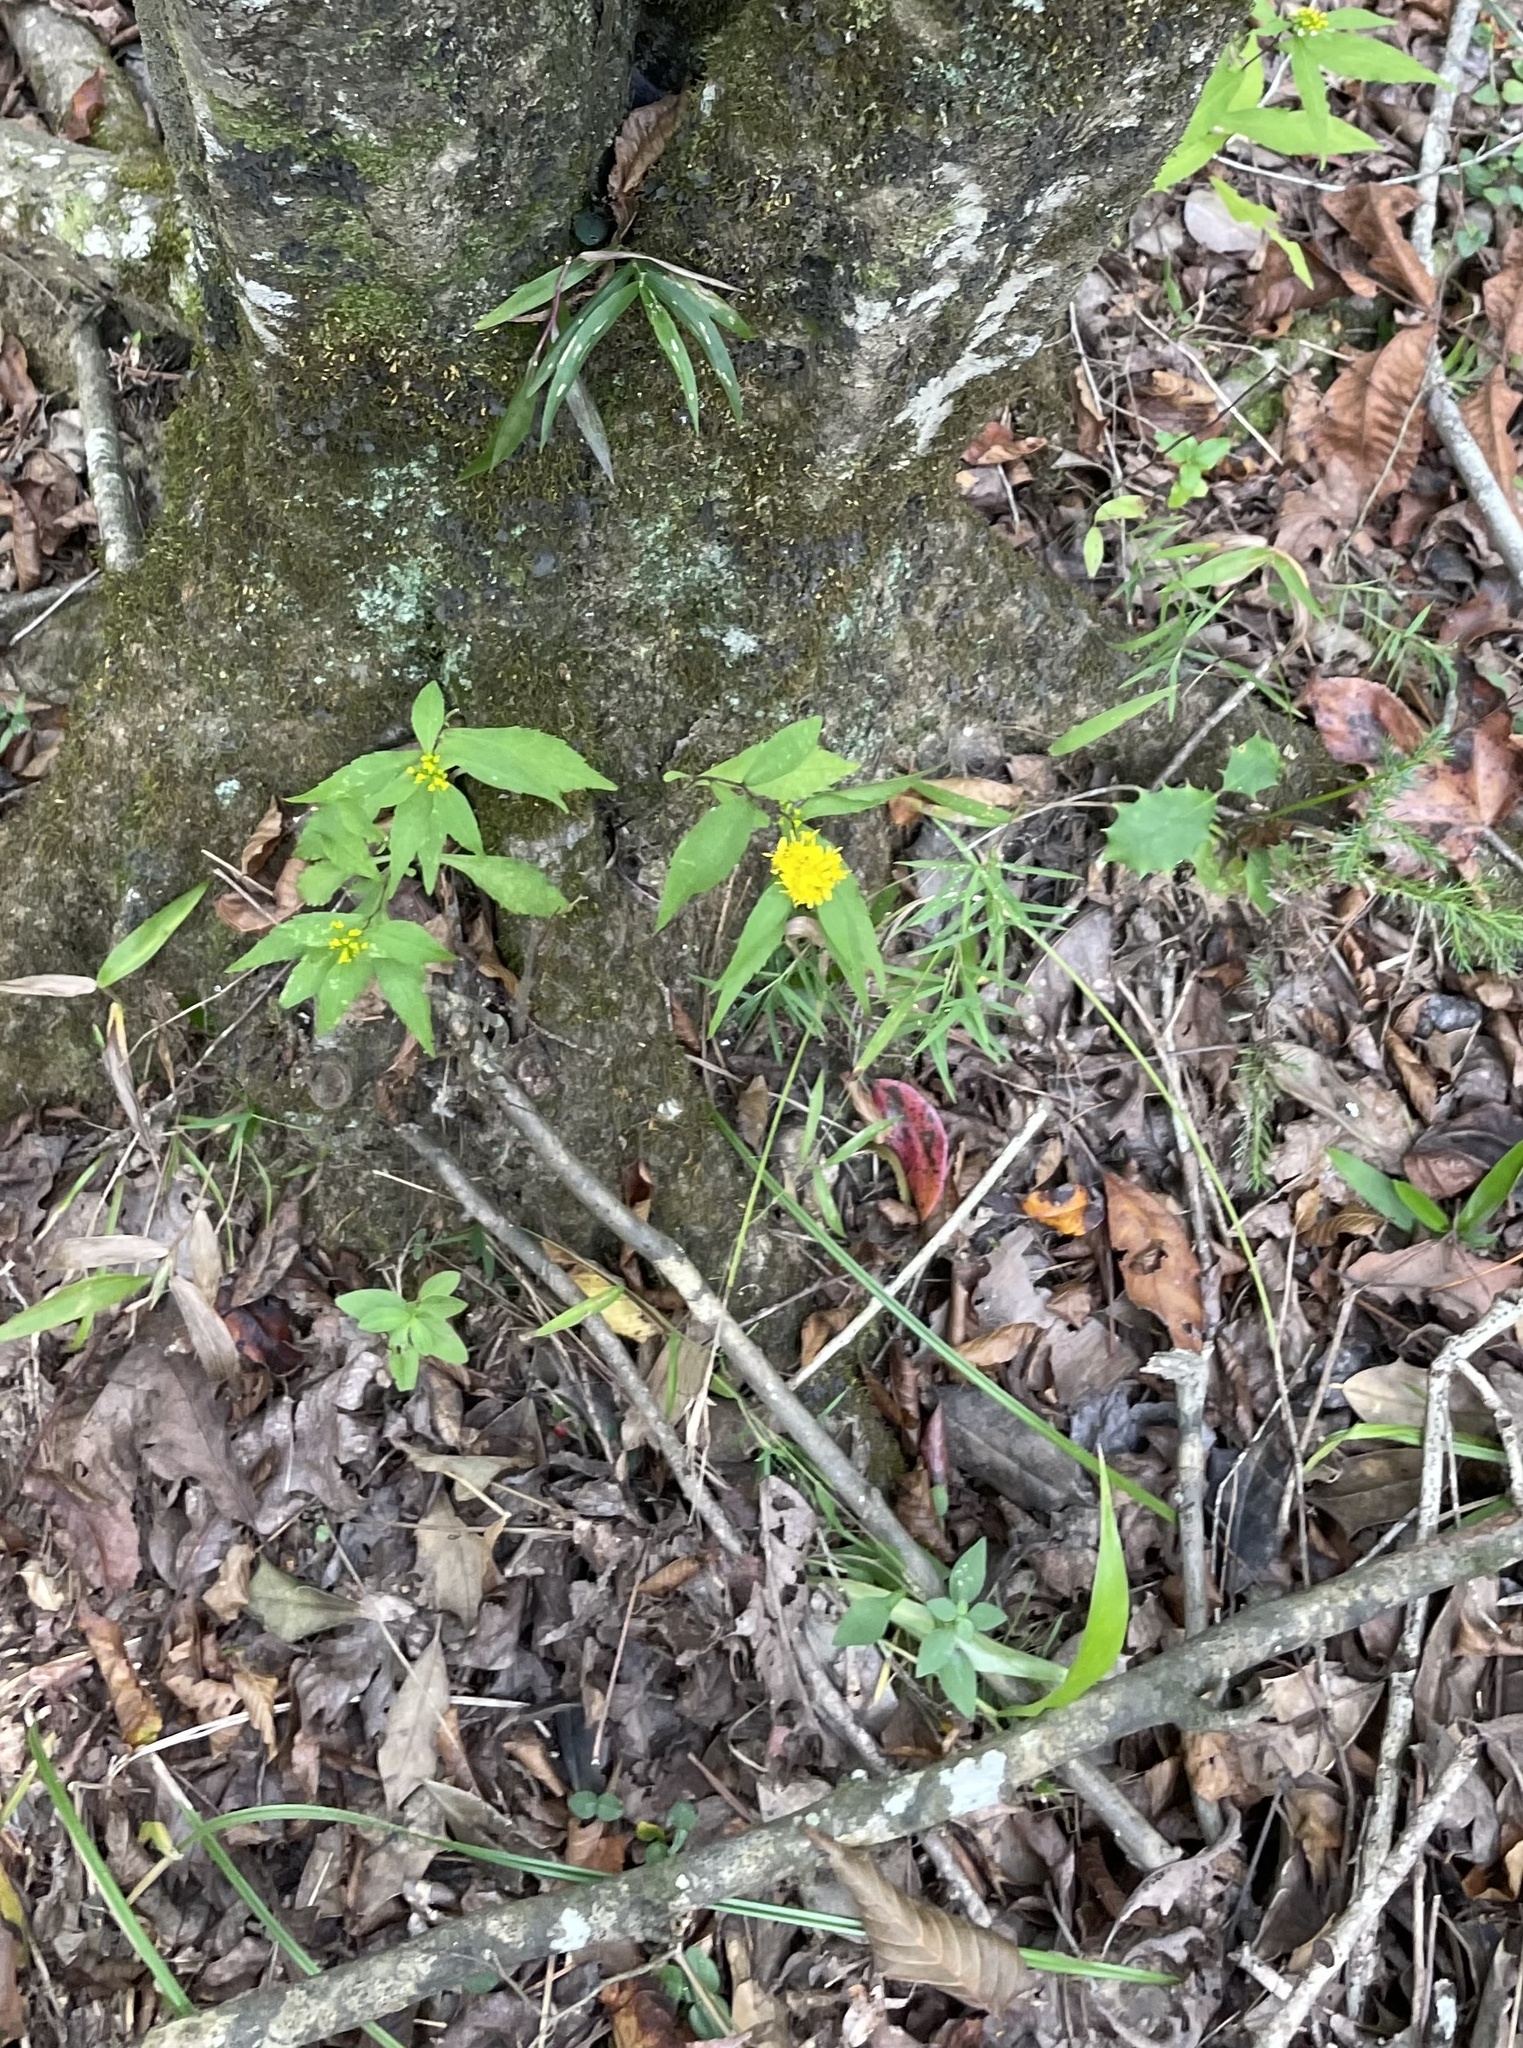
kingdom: Plantae
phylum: Tracheophyta
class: Magnoliopsida
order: Asterales
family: Asteraceae
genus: Solidago
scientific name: Solidago caesia
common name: Woodland goldenrod
